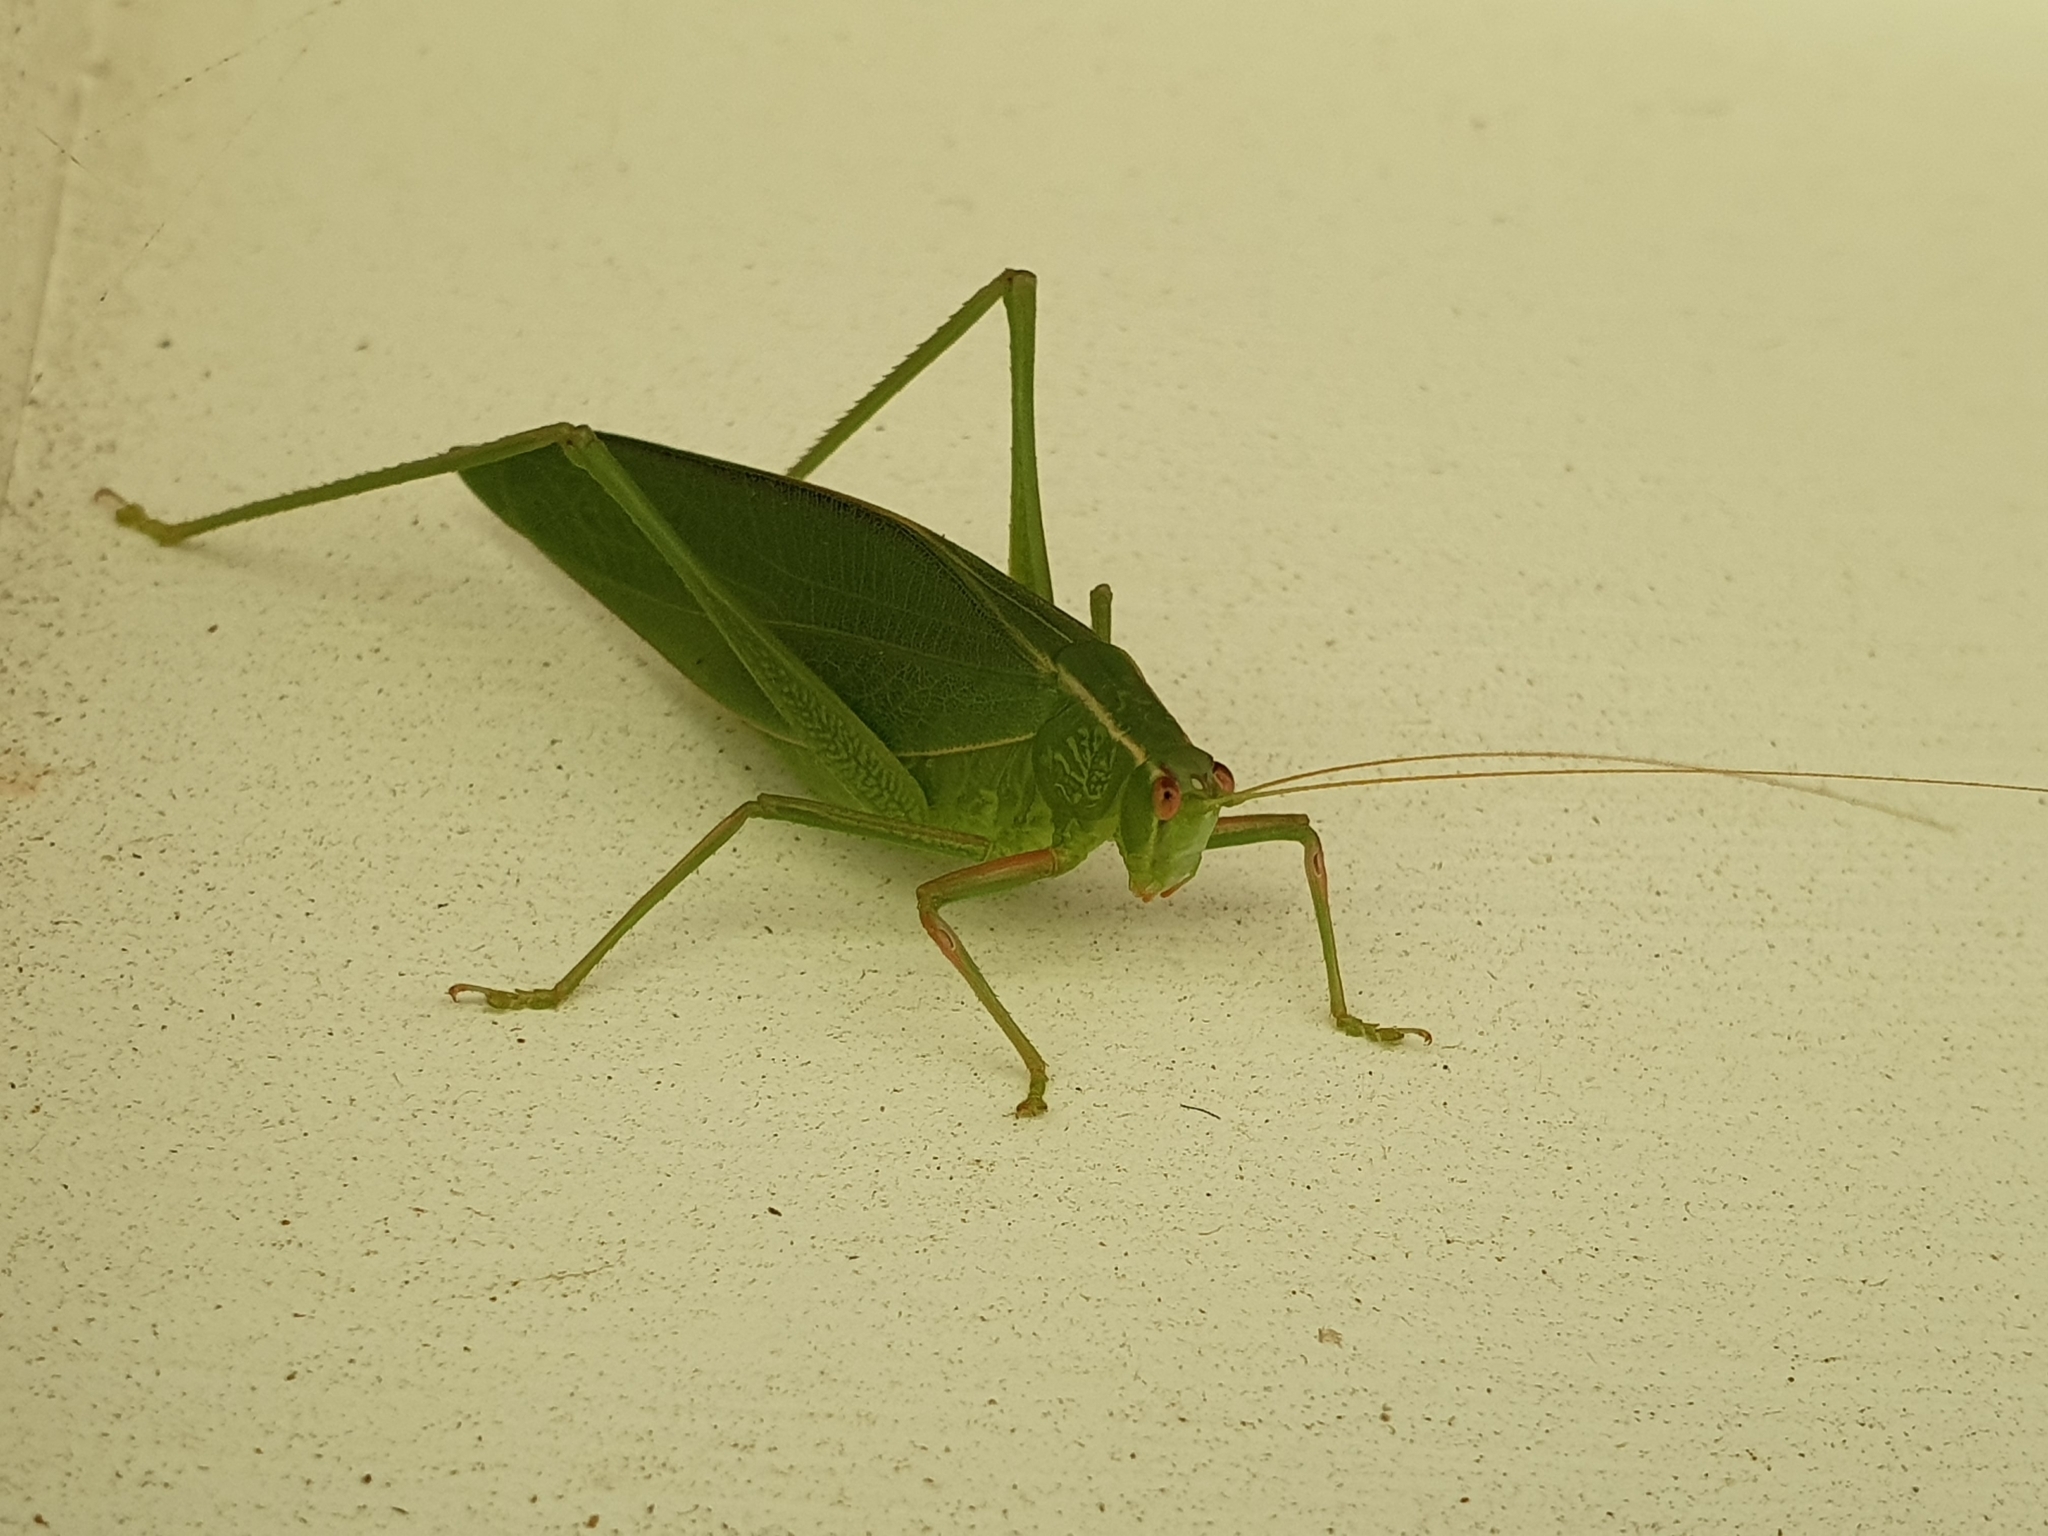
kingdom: Animalia
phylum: Arthropoda
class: Insecta
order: Orthoptera
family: Tettigoniidae
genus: Caedicia
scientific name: Caedicia simplex
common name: Common garden katydid
